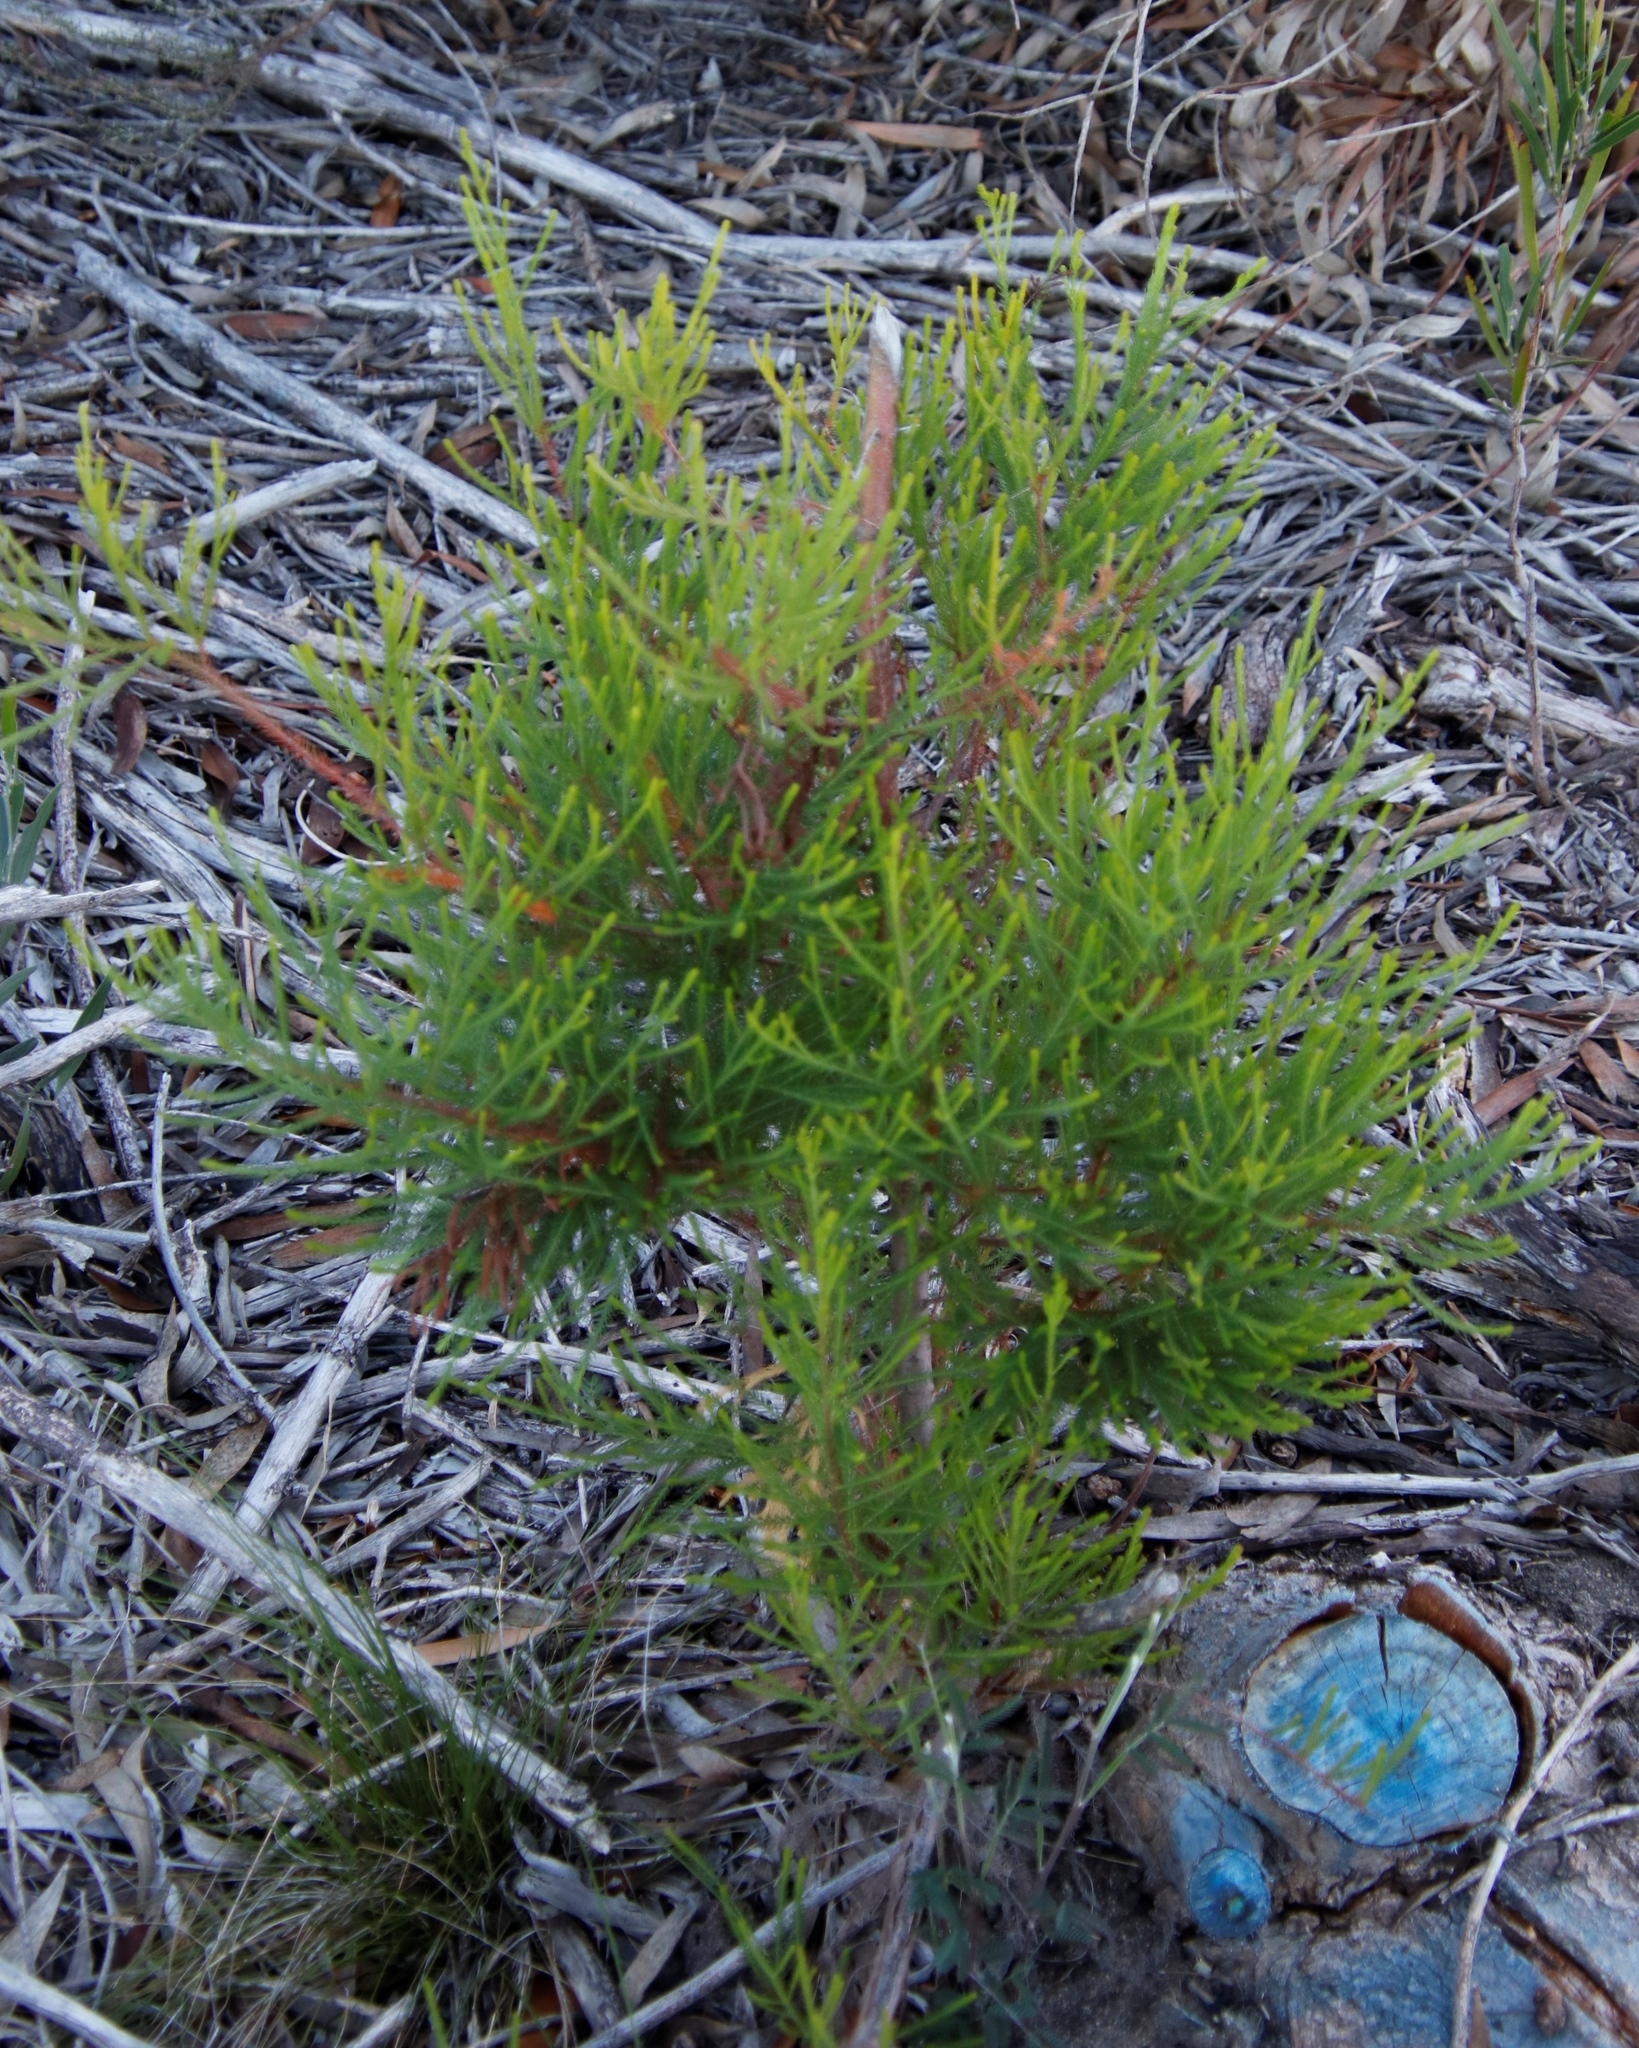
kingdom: Plantae
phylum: Tracheophyta
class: Magnoliopsida
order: Bruniales
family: Bruniaceae
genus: Berzelia
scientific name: Berzelia lanuginosa
